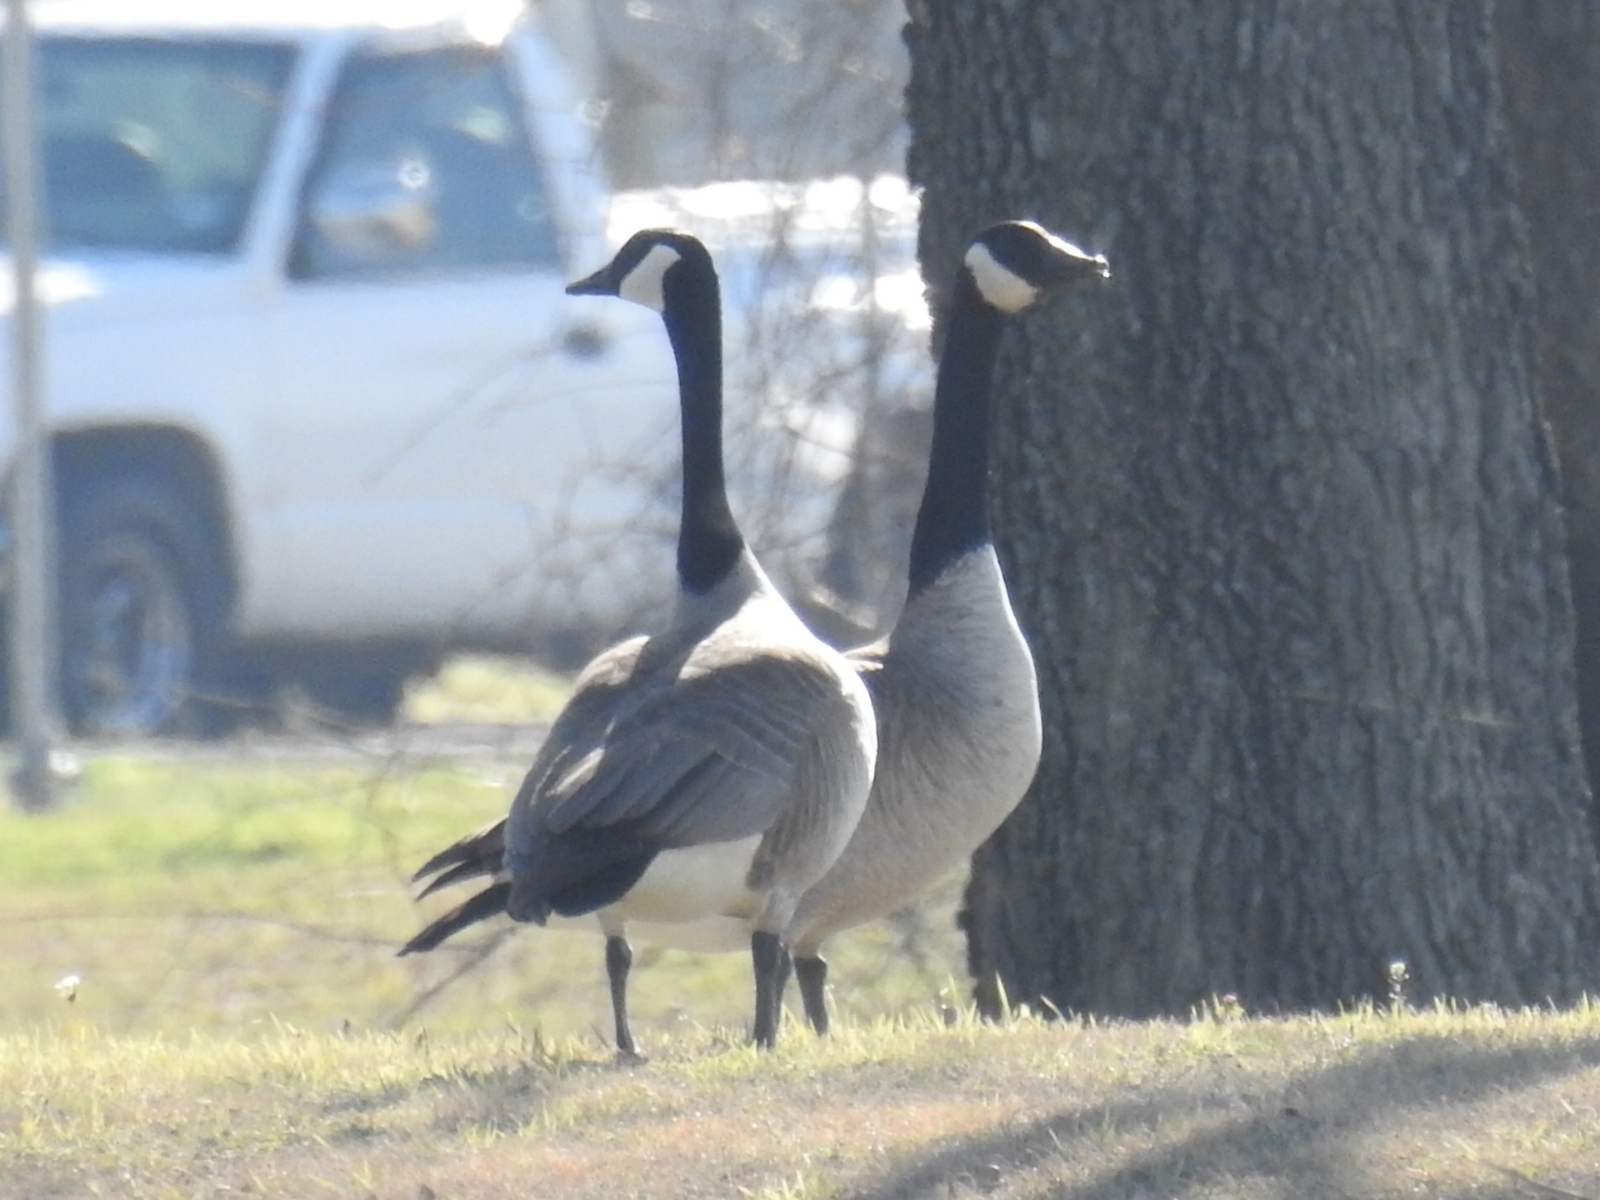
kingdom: Animalia
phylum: Chordata
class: Aves
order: Anseriformes
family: Anatidae
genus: Branta
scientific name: Branta canadensis
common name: Canada goose
